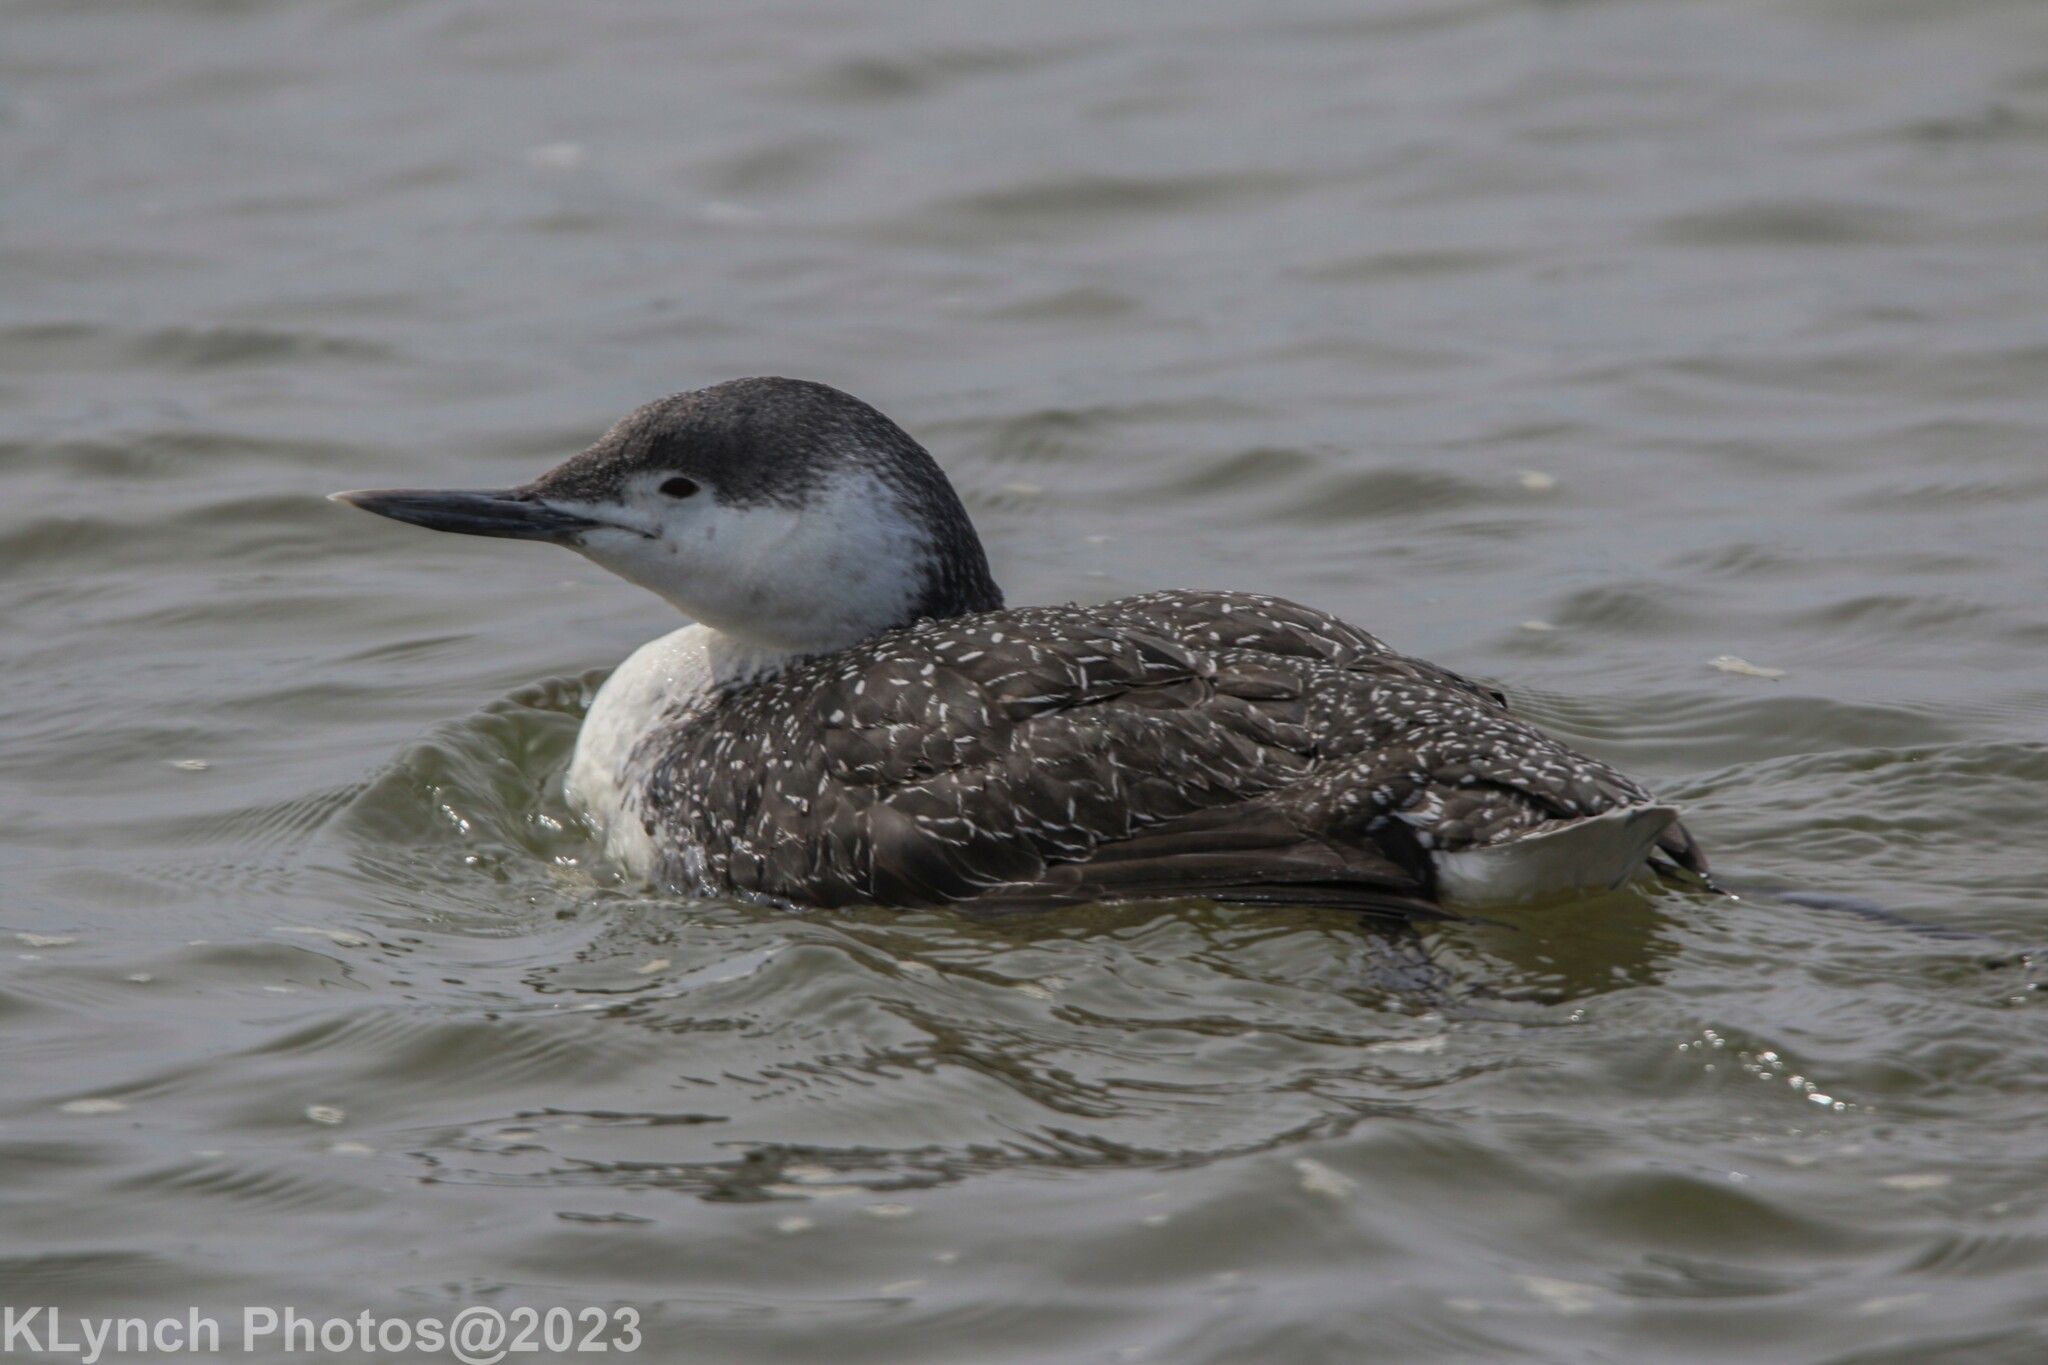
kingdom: Animalia
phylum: Chordata
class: Aves
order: Gaviiformes
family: Gaviidae
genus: Gavia
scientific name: Gavia immer
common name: Common loon
